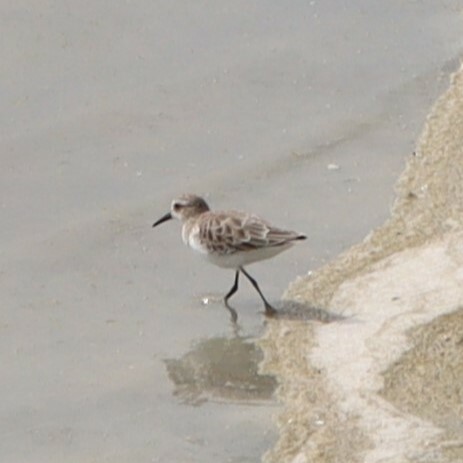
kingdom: Animalia
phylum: Chordata
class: Aves
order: Charadriiformes
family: Scolopacidae
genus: Calidris
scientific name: Calidris minuta
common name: Little stint
